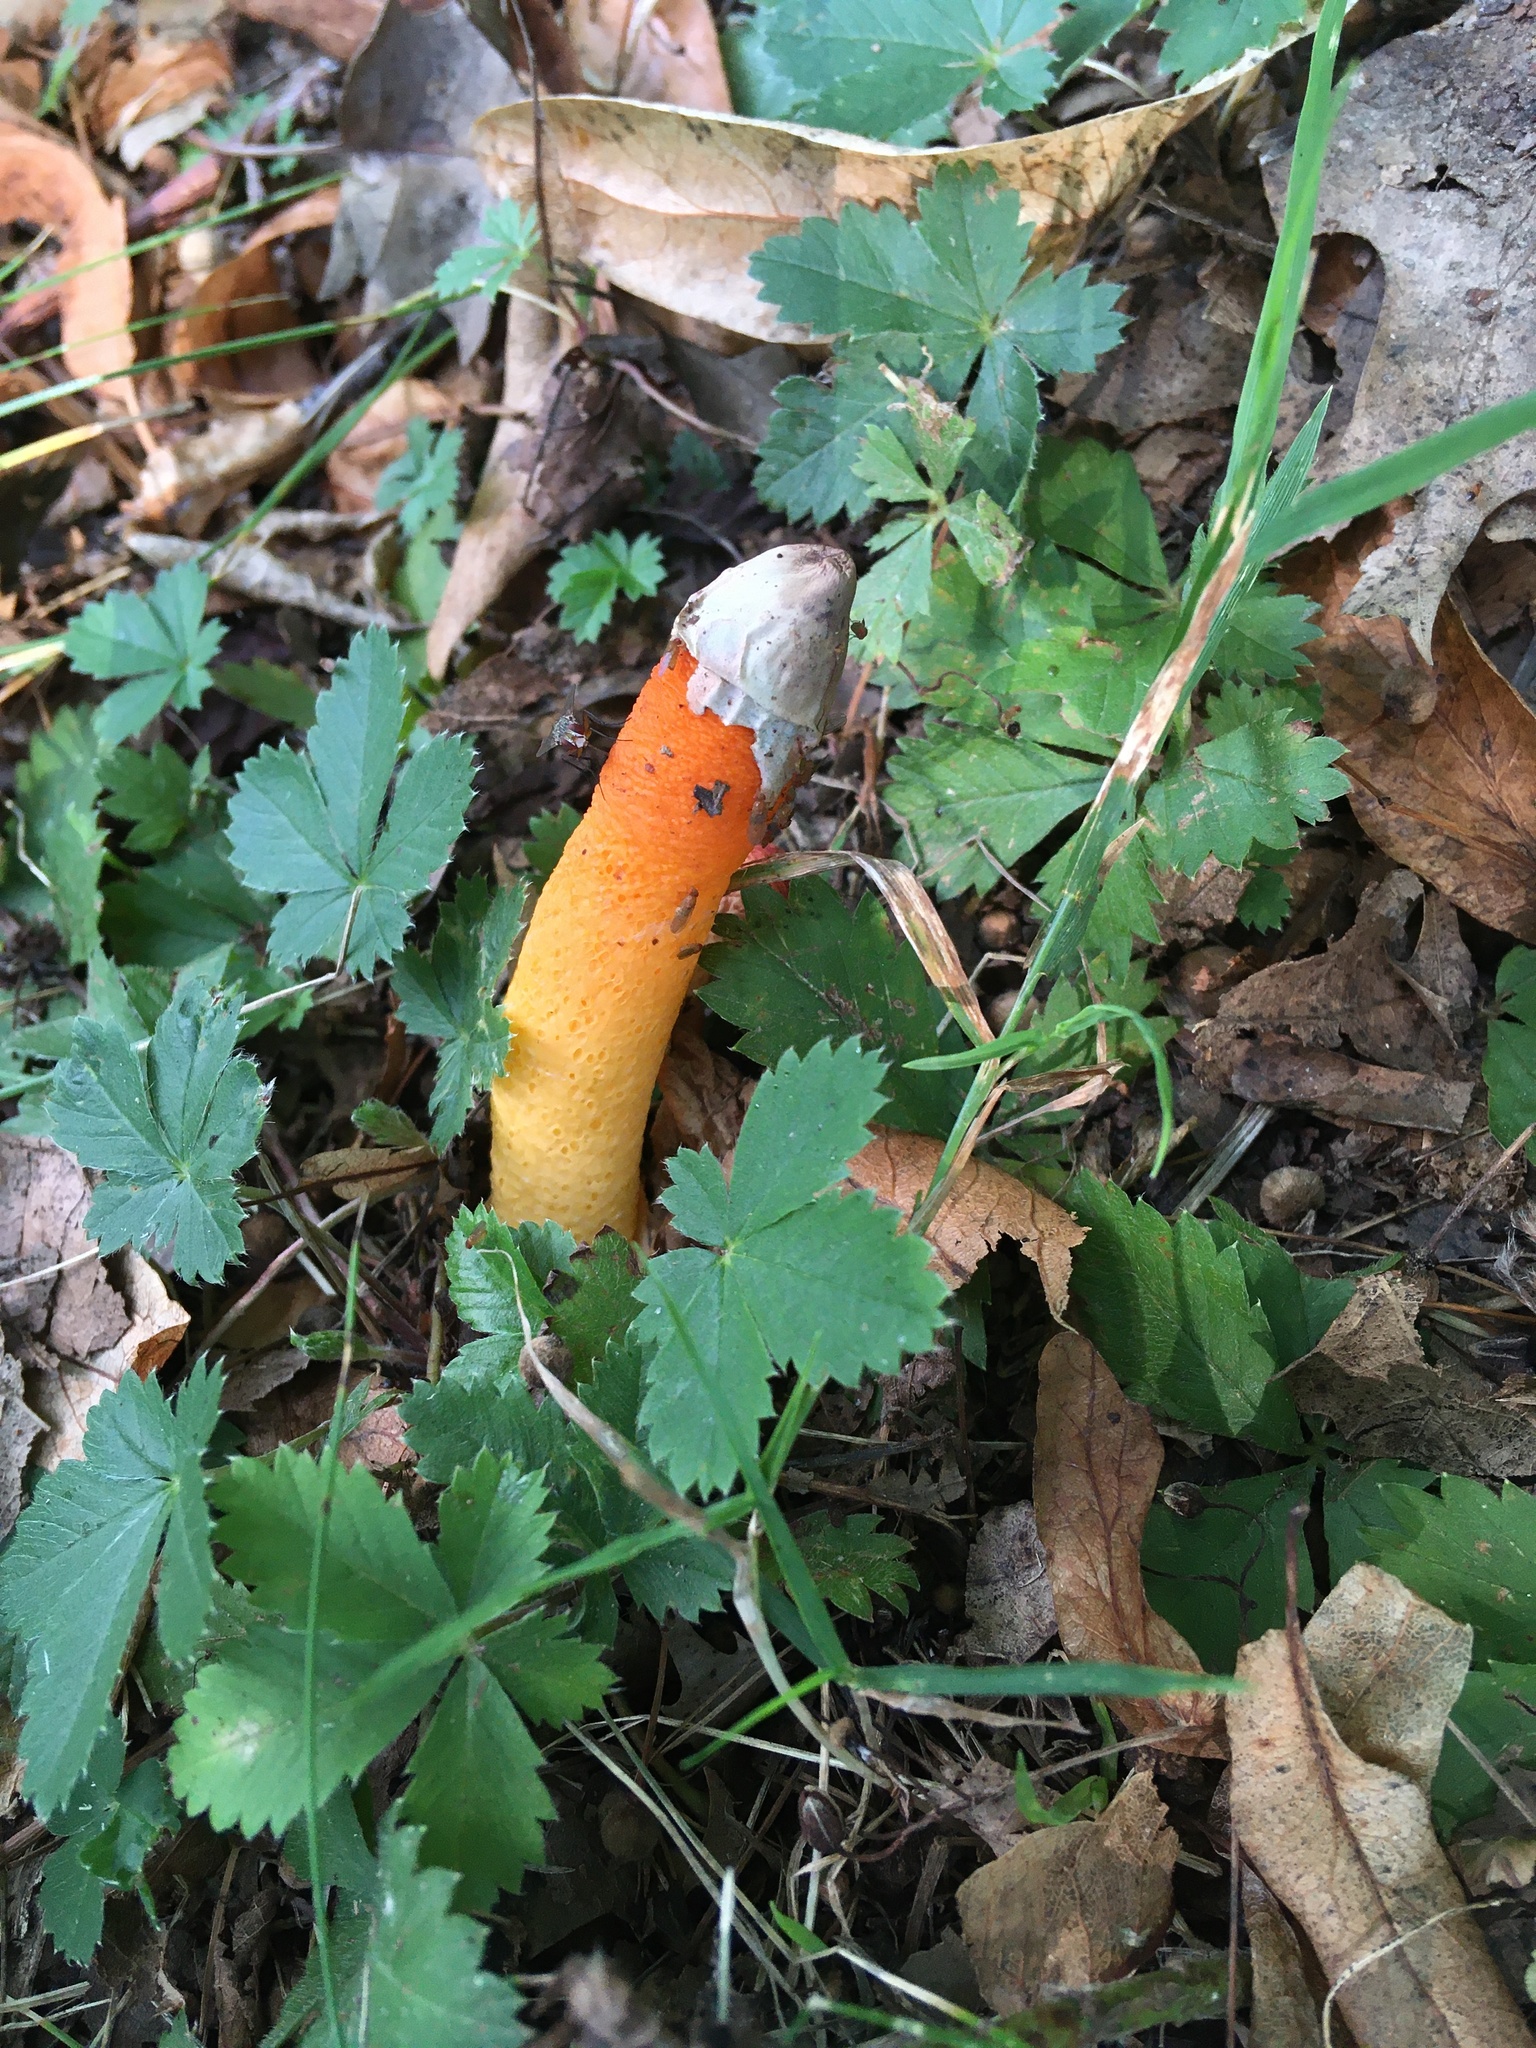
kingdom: Fungi
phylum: Basidiomycota
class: Agaricomycetes
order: Phallales
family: Phallaceae
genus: Mutinus
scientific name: Mutinus elegans
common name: Devil's dipstick
